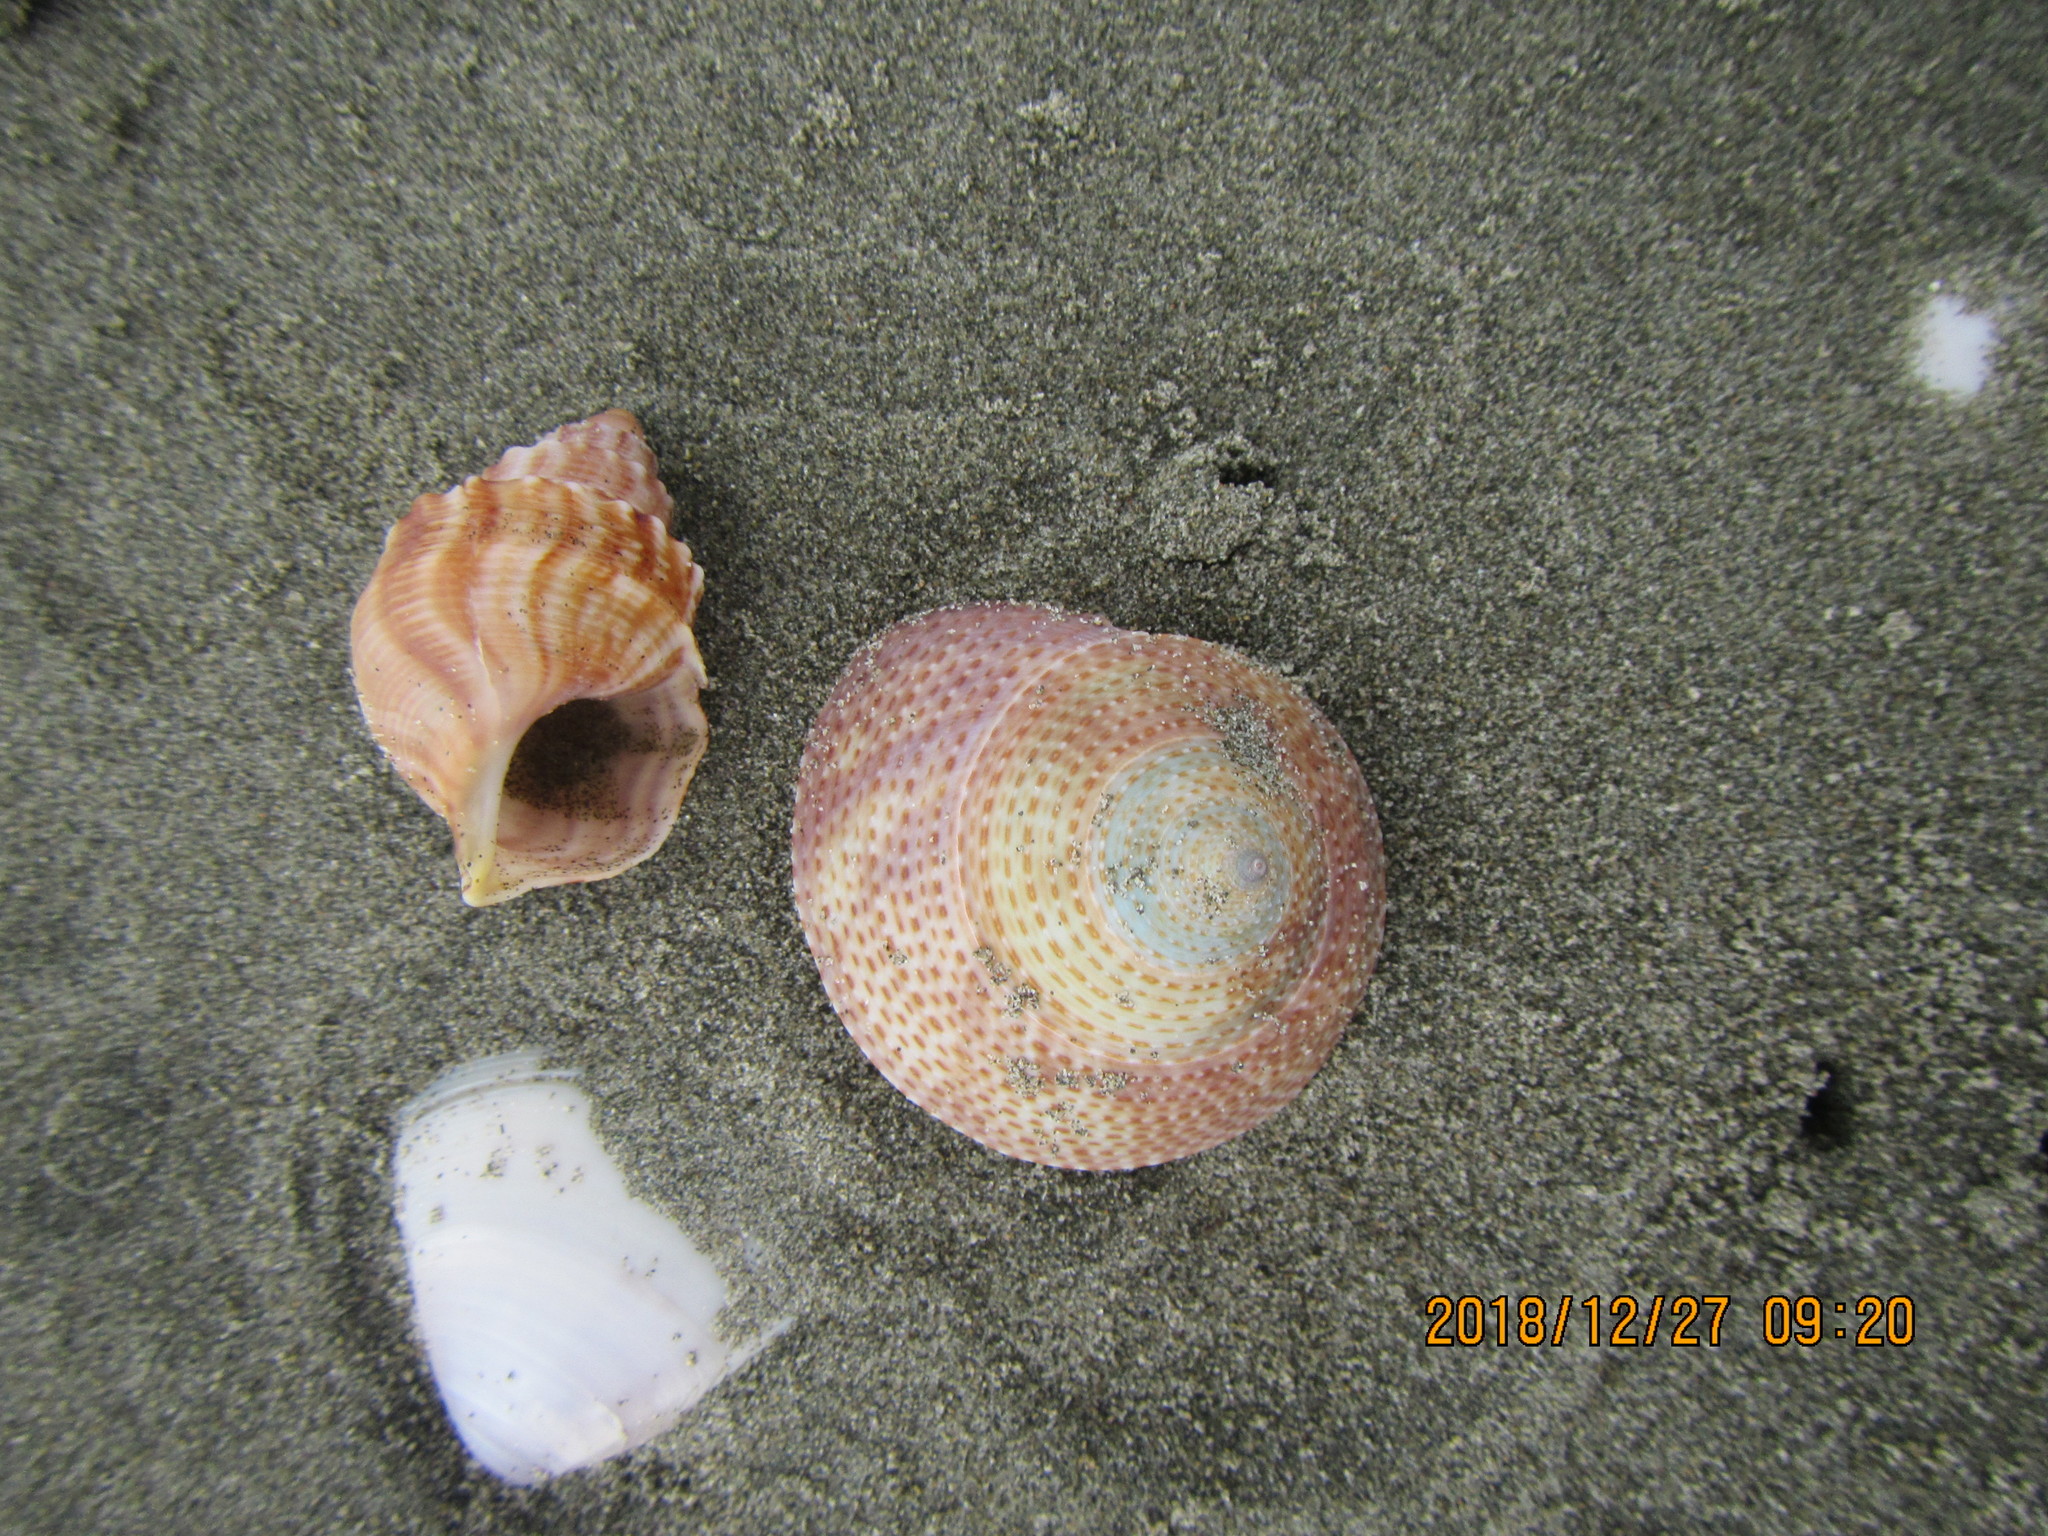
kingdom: Animalia
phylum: Mollusca
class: Gastropoda
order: Littorinimorpha
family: Struthiolariidae
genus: Struthiolaria
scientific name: Struthiolaria papulosa
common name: Large ostrich foot
